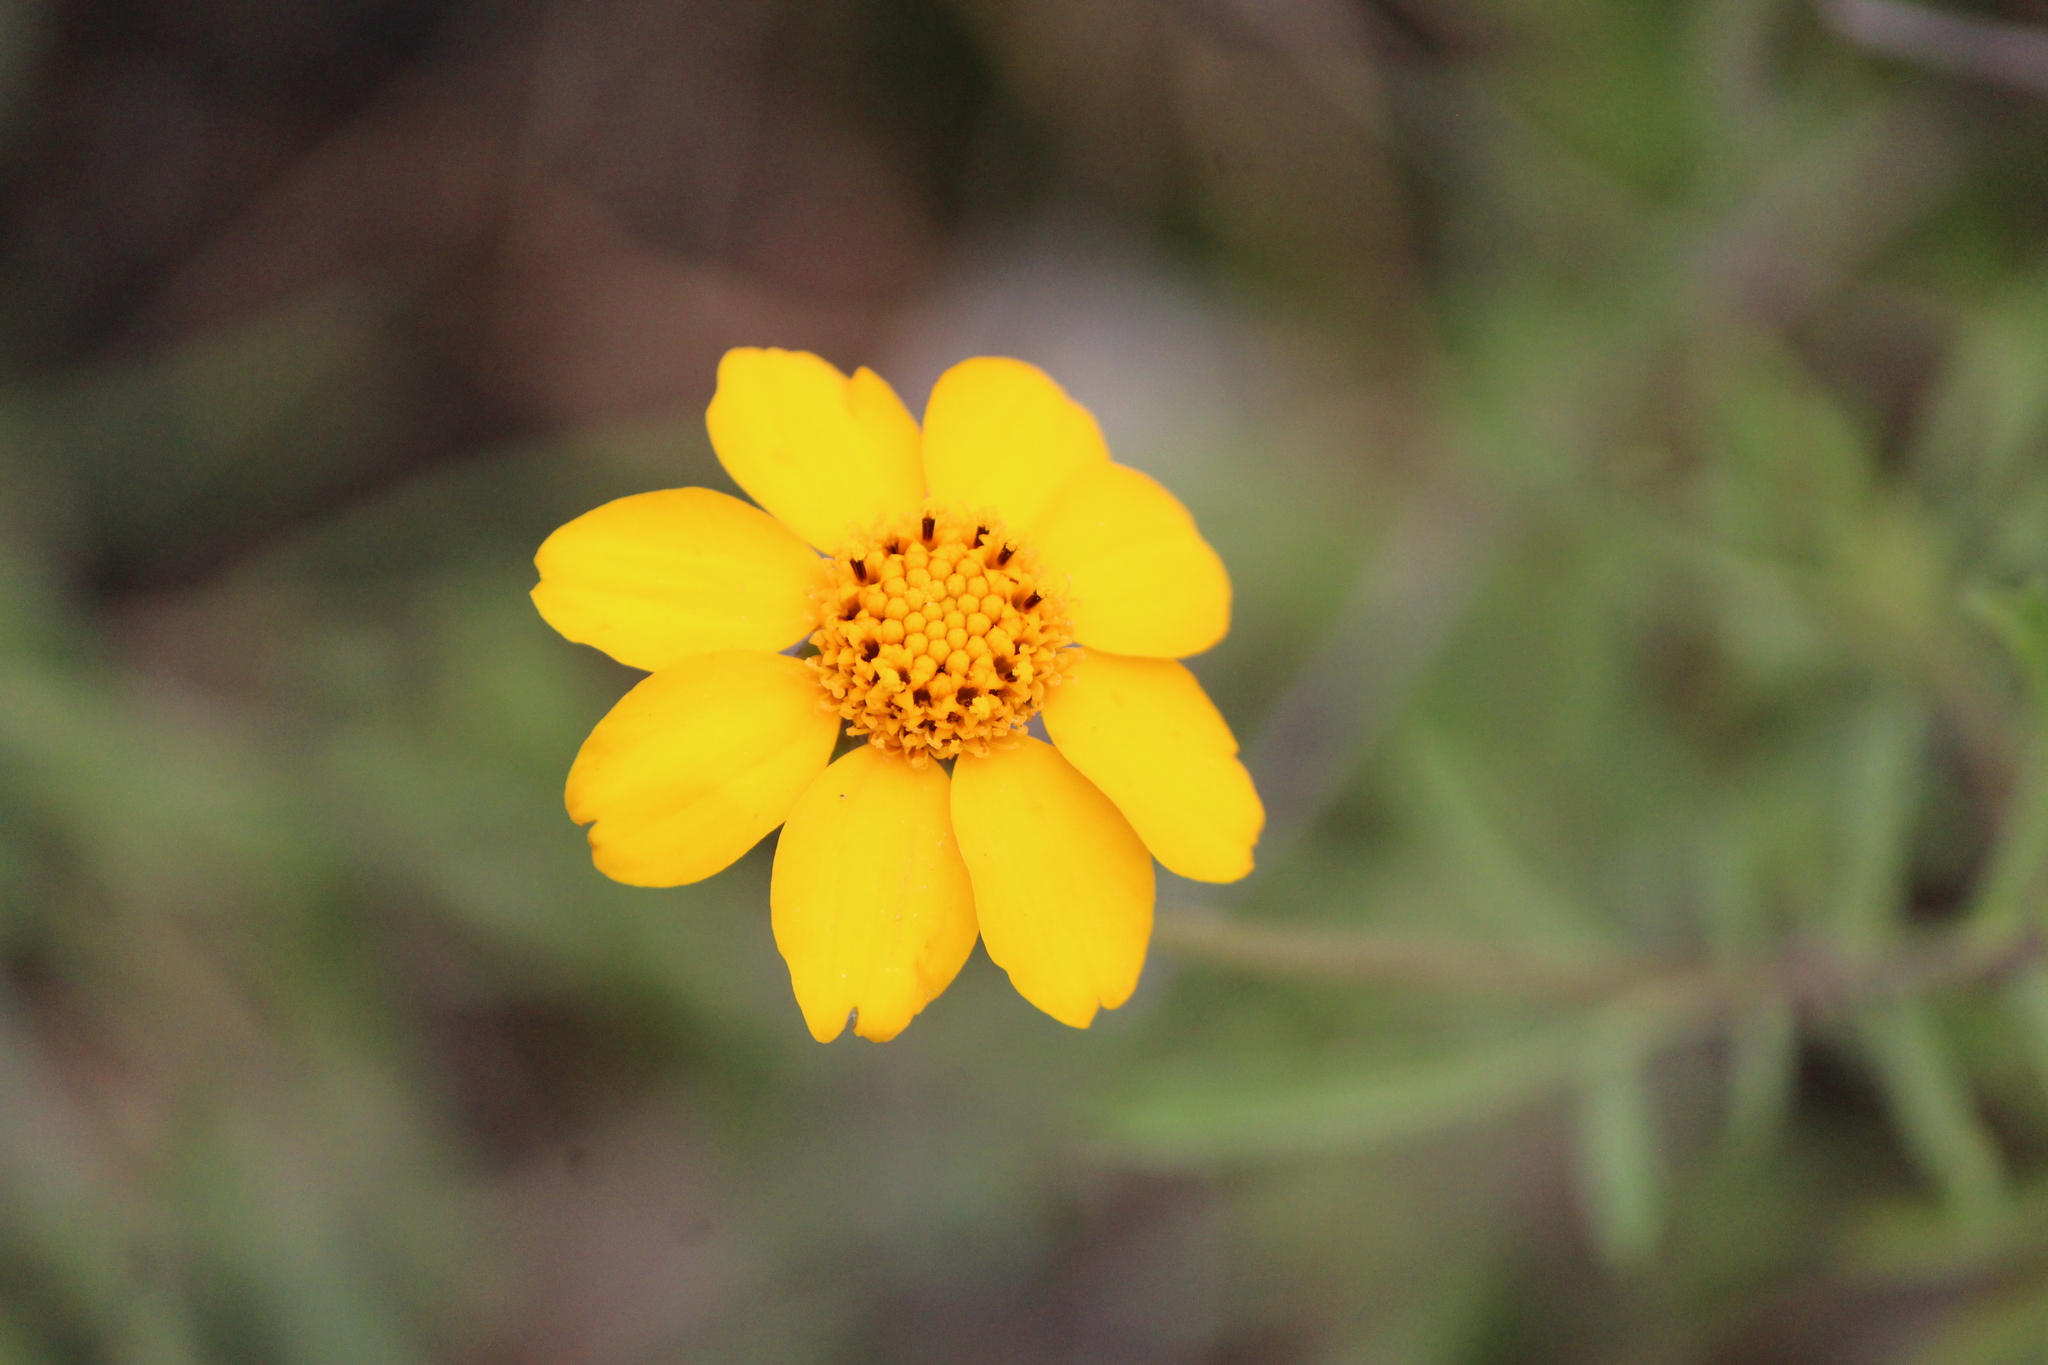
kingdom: Plantae
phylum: Tracheophyta
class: Magnoliopsida
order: Asterales
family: Asteraceae
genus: Dyssodia
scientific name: Dyssodia pinnata
